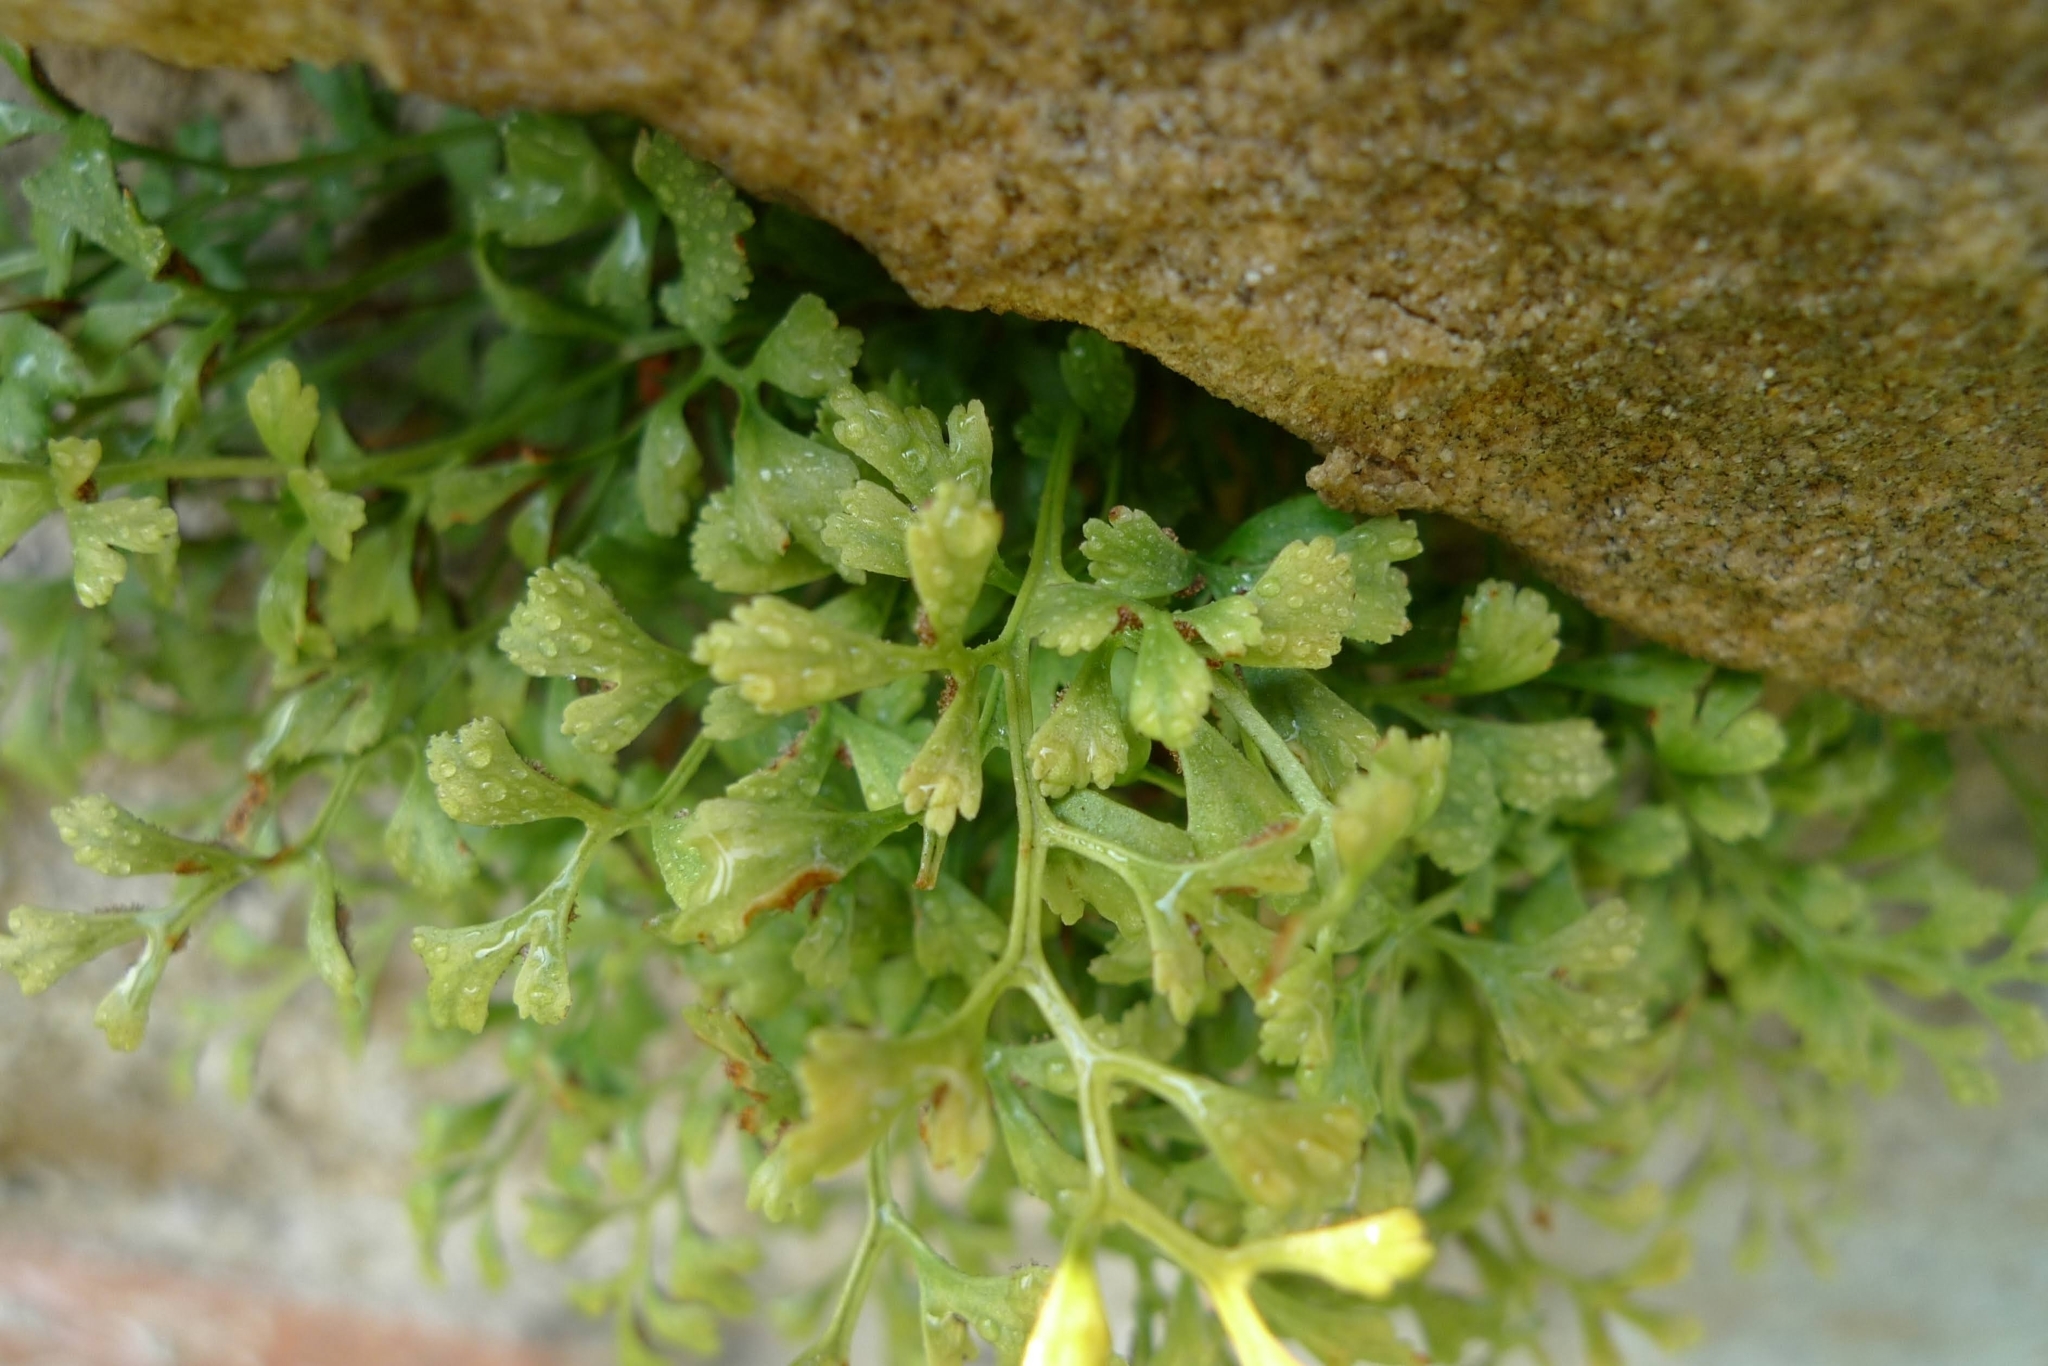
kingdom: Plantae
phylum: Tracheophyta
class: Polypodiopsida
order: Polypodiales
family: Aspleniaceae
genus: Asplenium
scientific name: Asplenium ruta-muraria
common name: Wall-rue
